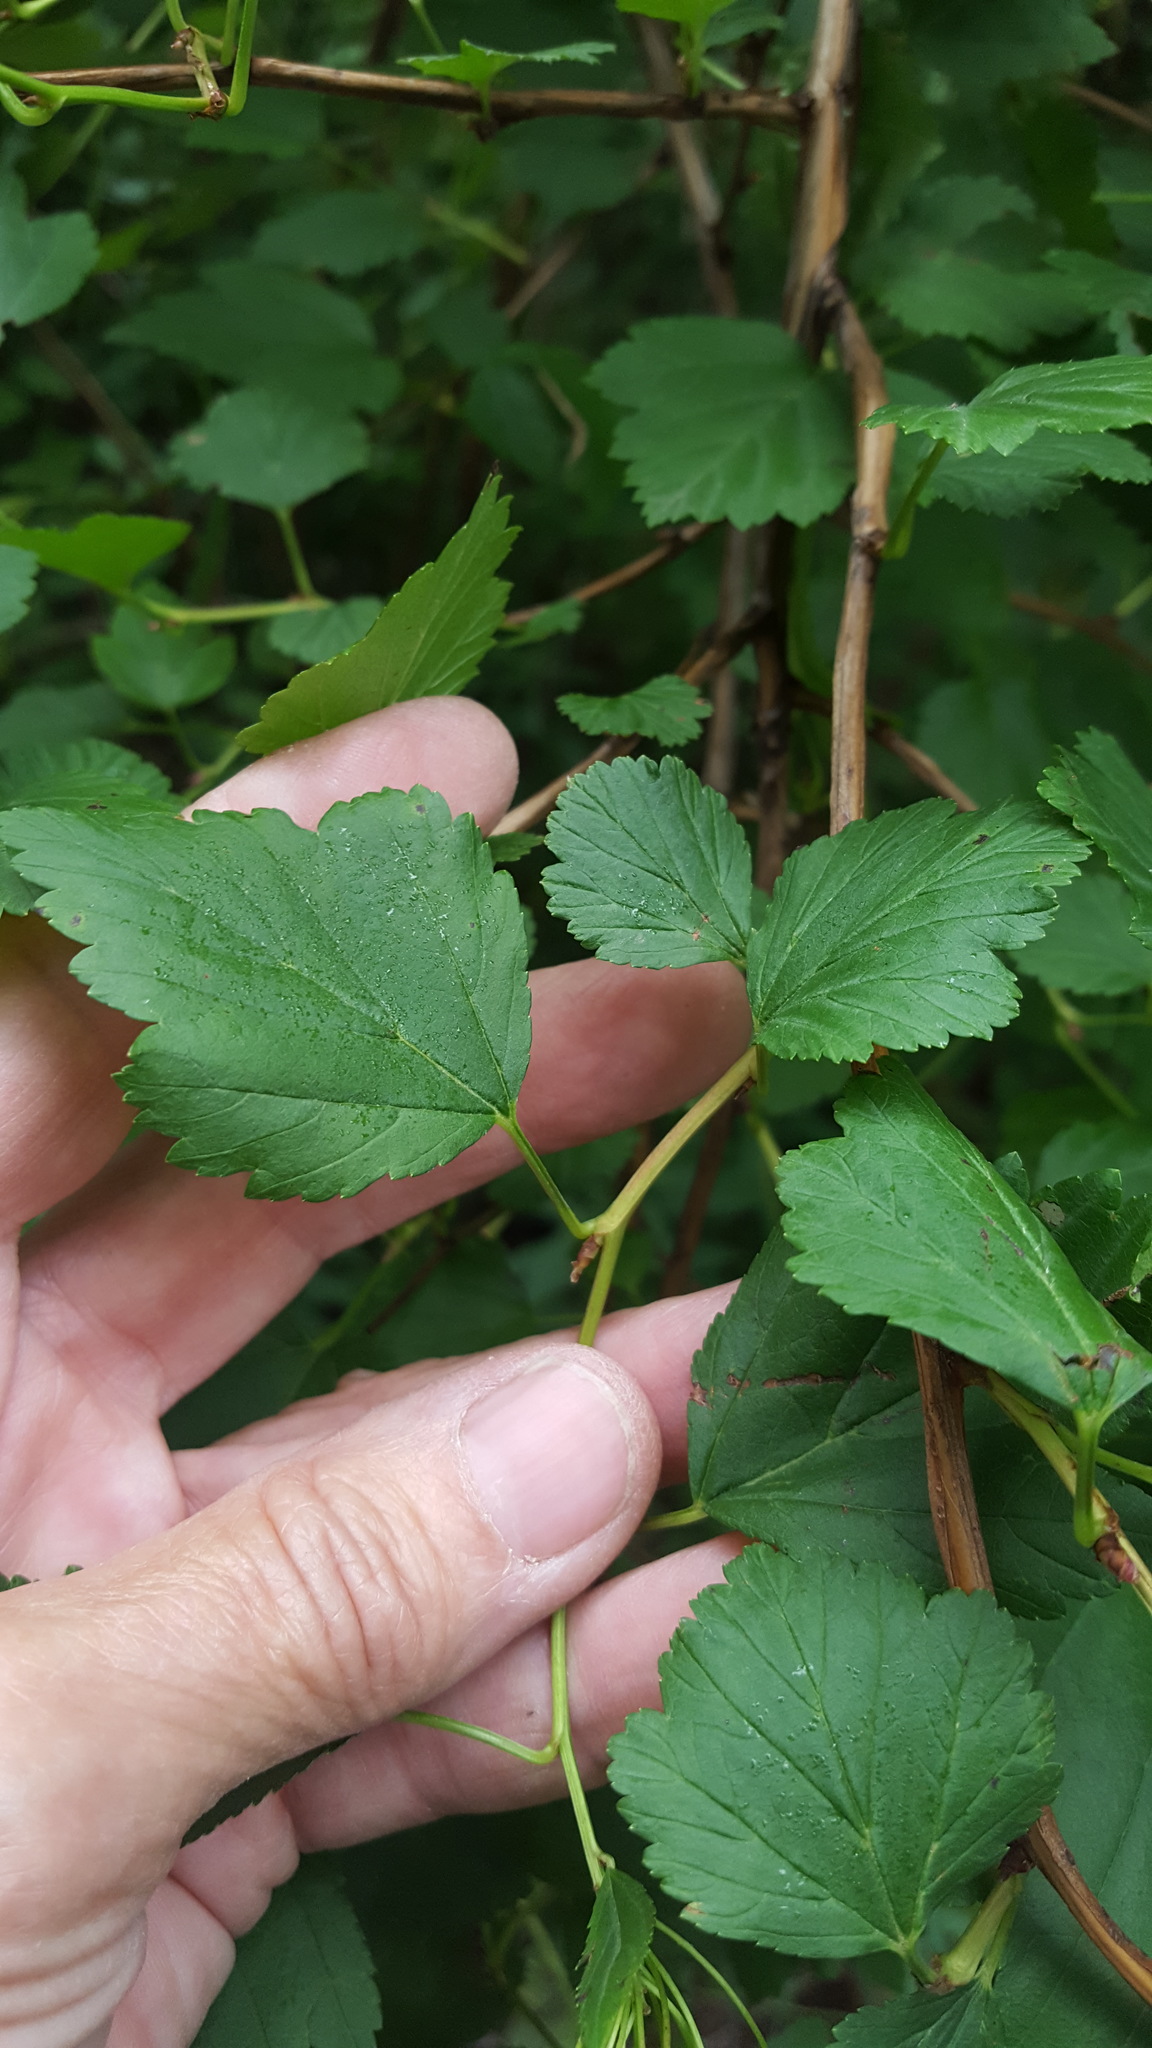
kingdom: Plantae
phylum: Tracheophyta
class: Magnoliopsida
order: Rosales
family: Rosaceae
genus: Physocarpus
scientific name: Physocarpus opulifolius
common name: Ninebark
